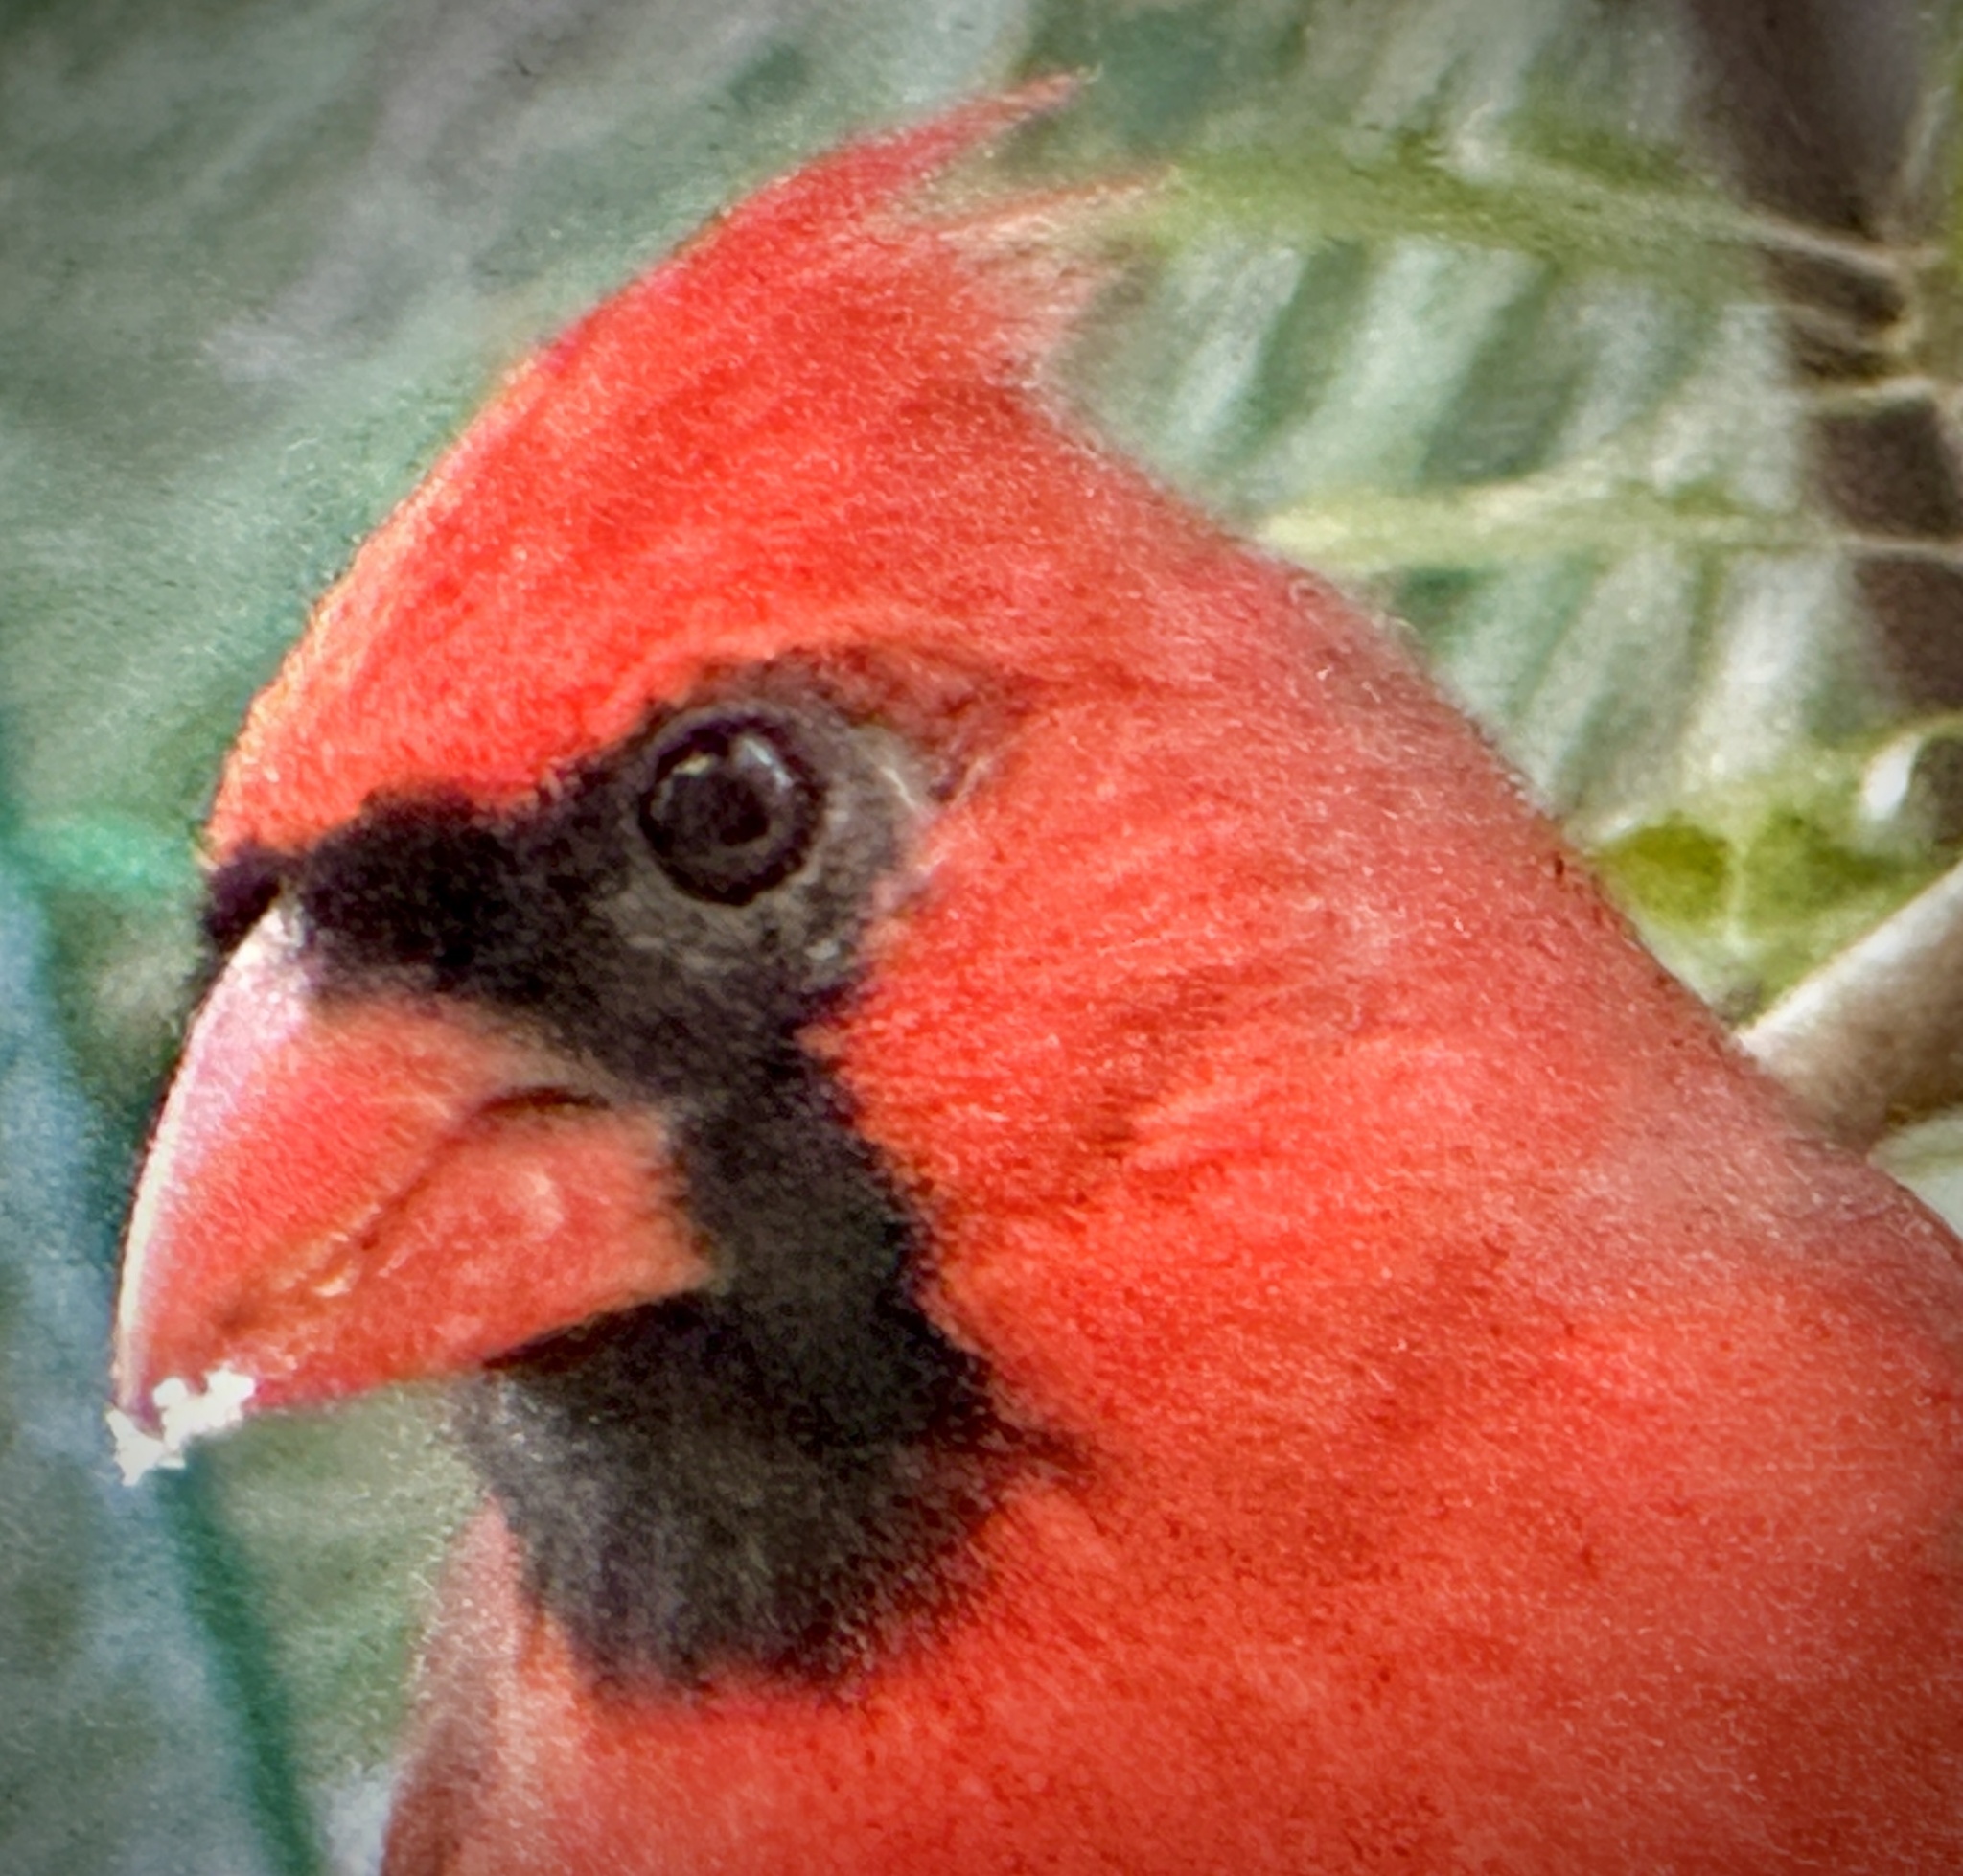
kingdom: Animalia
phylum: Chordata
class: Aves
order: Passeriformes
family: Cardinalidae
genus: Cardinalis
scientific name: Cardinalis cardinalis
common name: Northern cardinal
